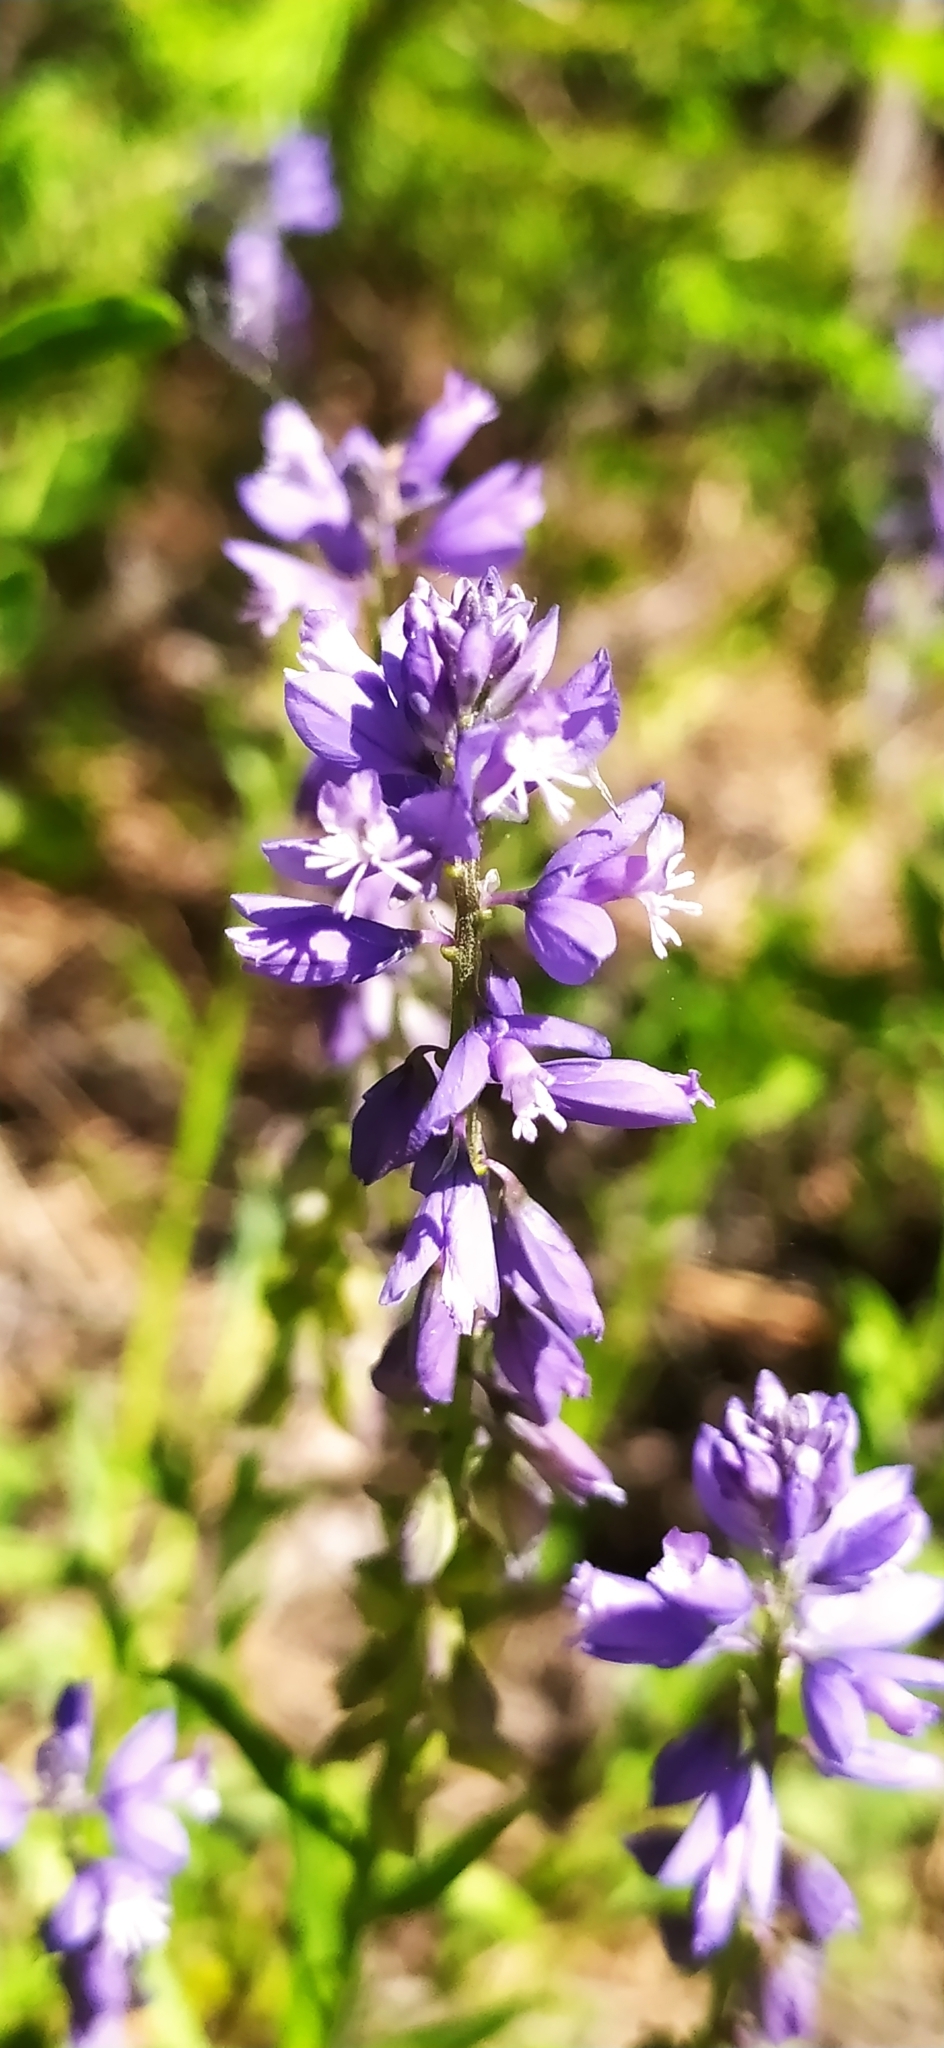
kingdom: Plantae
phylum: Tracheophyta
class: Magnoliopsida
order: Fabales
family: Polygalaceae
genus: Polygala
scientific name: Polygala comosa
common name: Tufted milkwort
